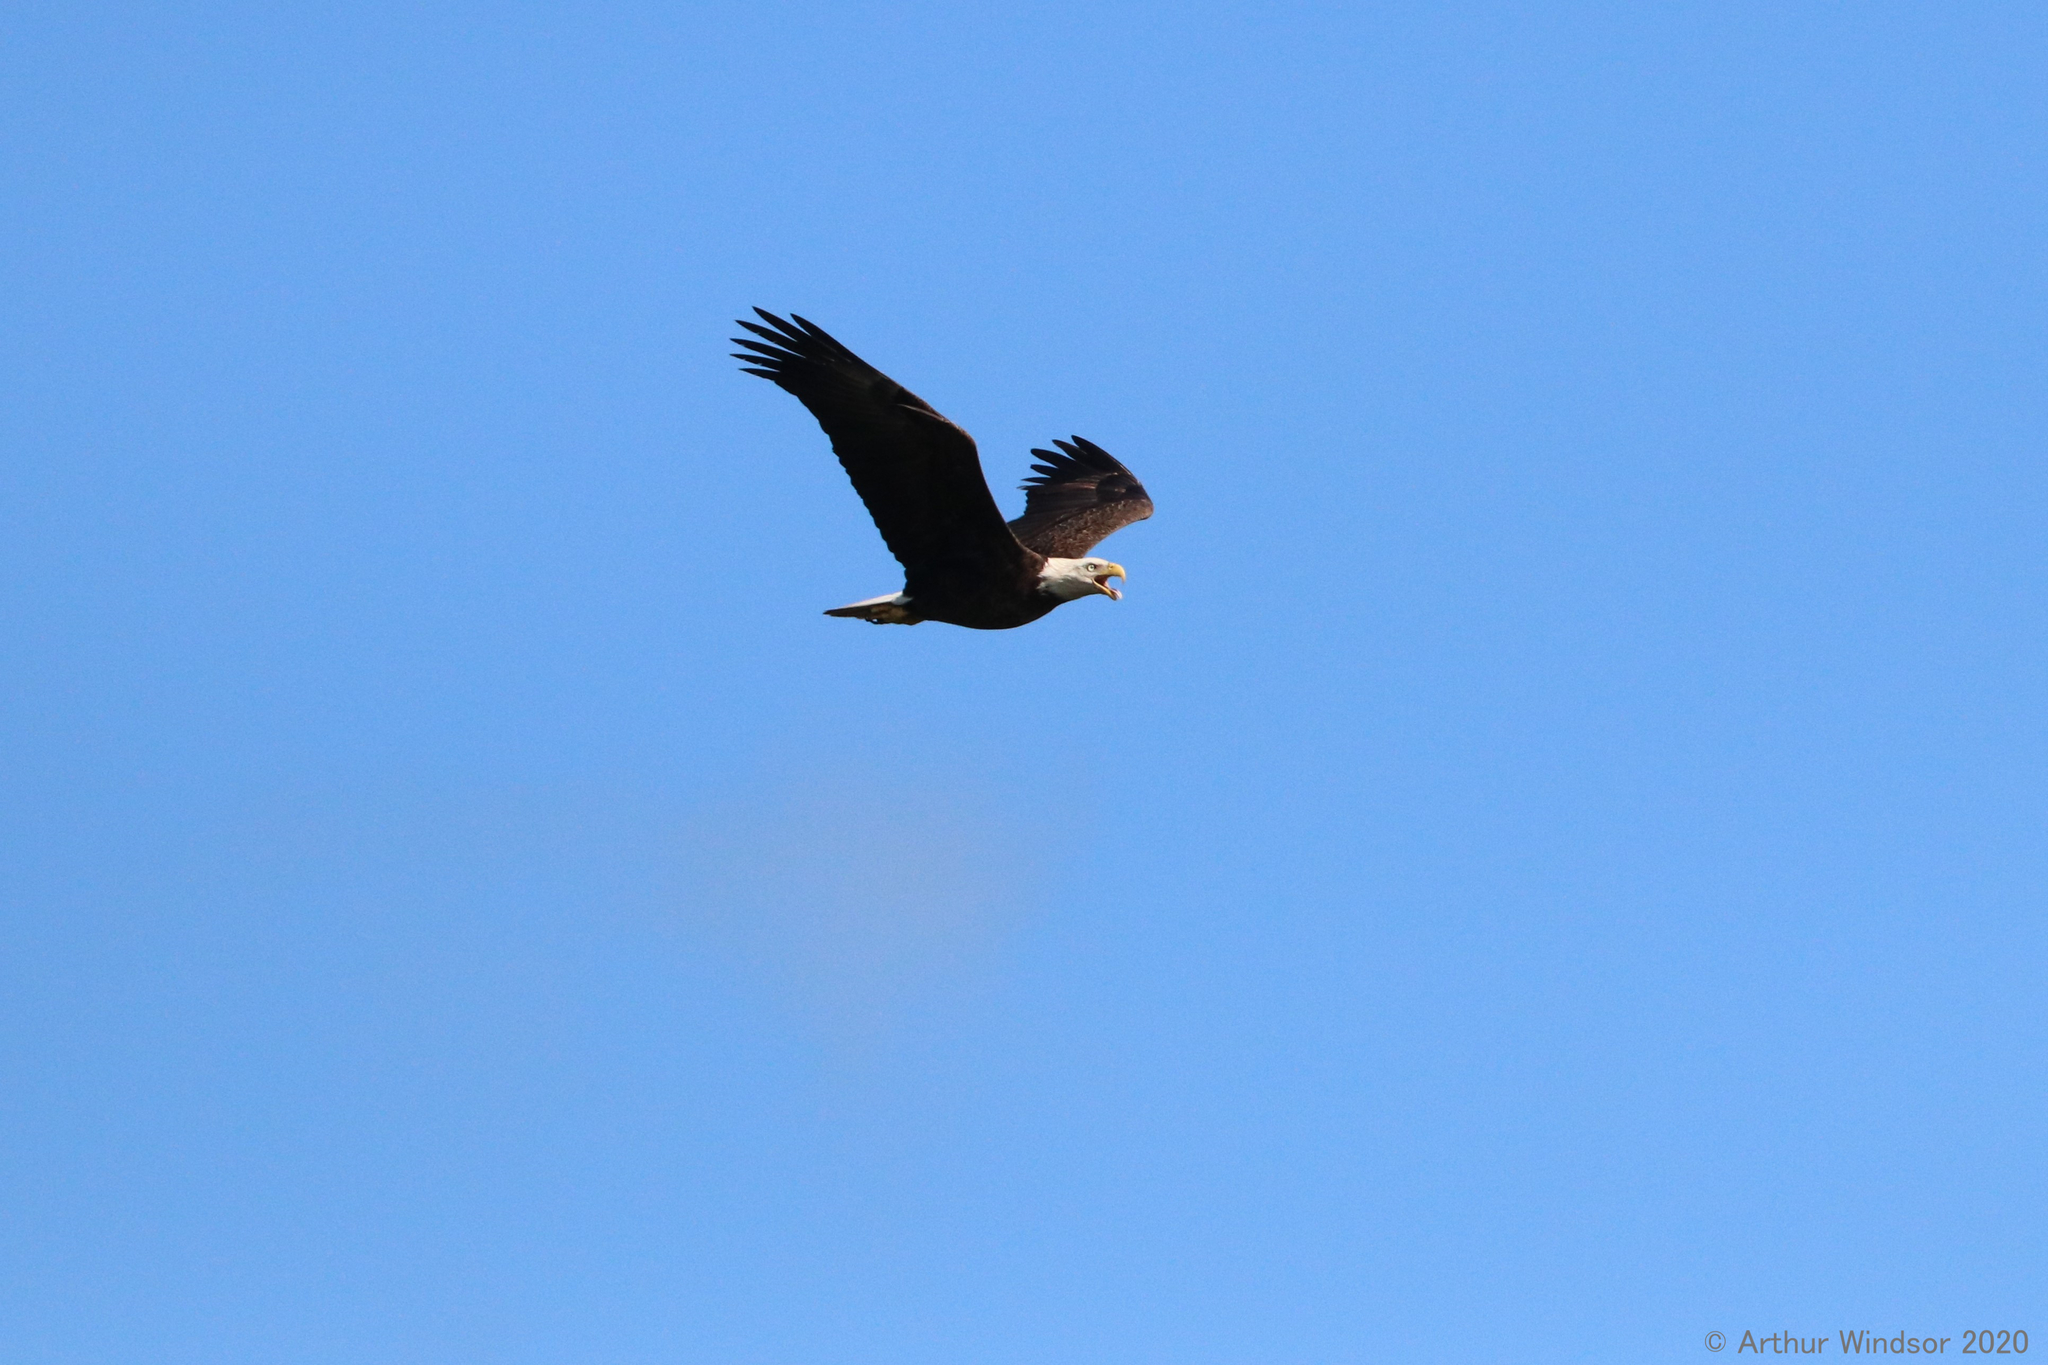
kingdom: Animalia
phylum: Chordata
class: Aves
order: Accipitriformes
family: Accipitridae
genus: Haliaeetus
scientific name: Haliaeetus leucocephalus
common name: Bald eagle
